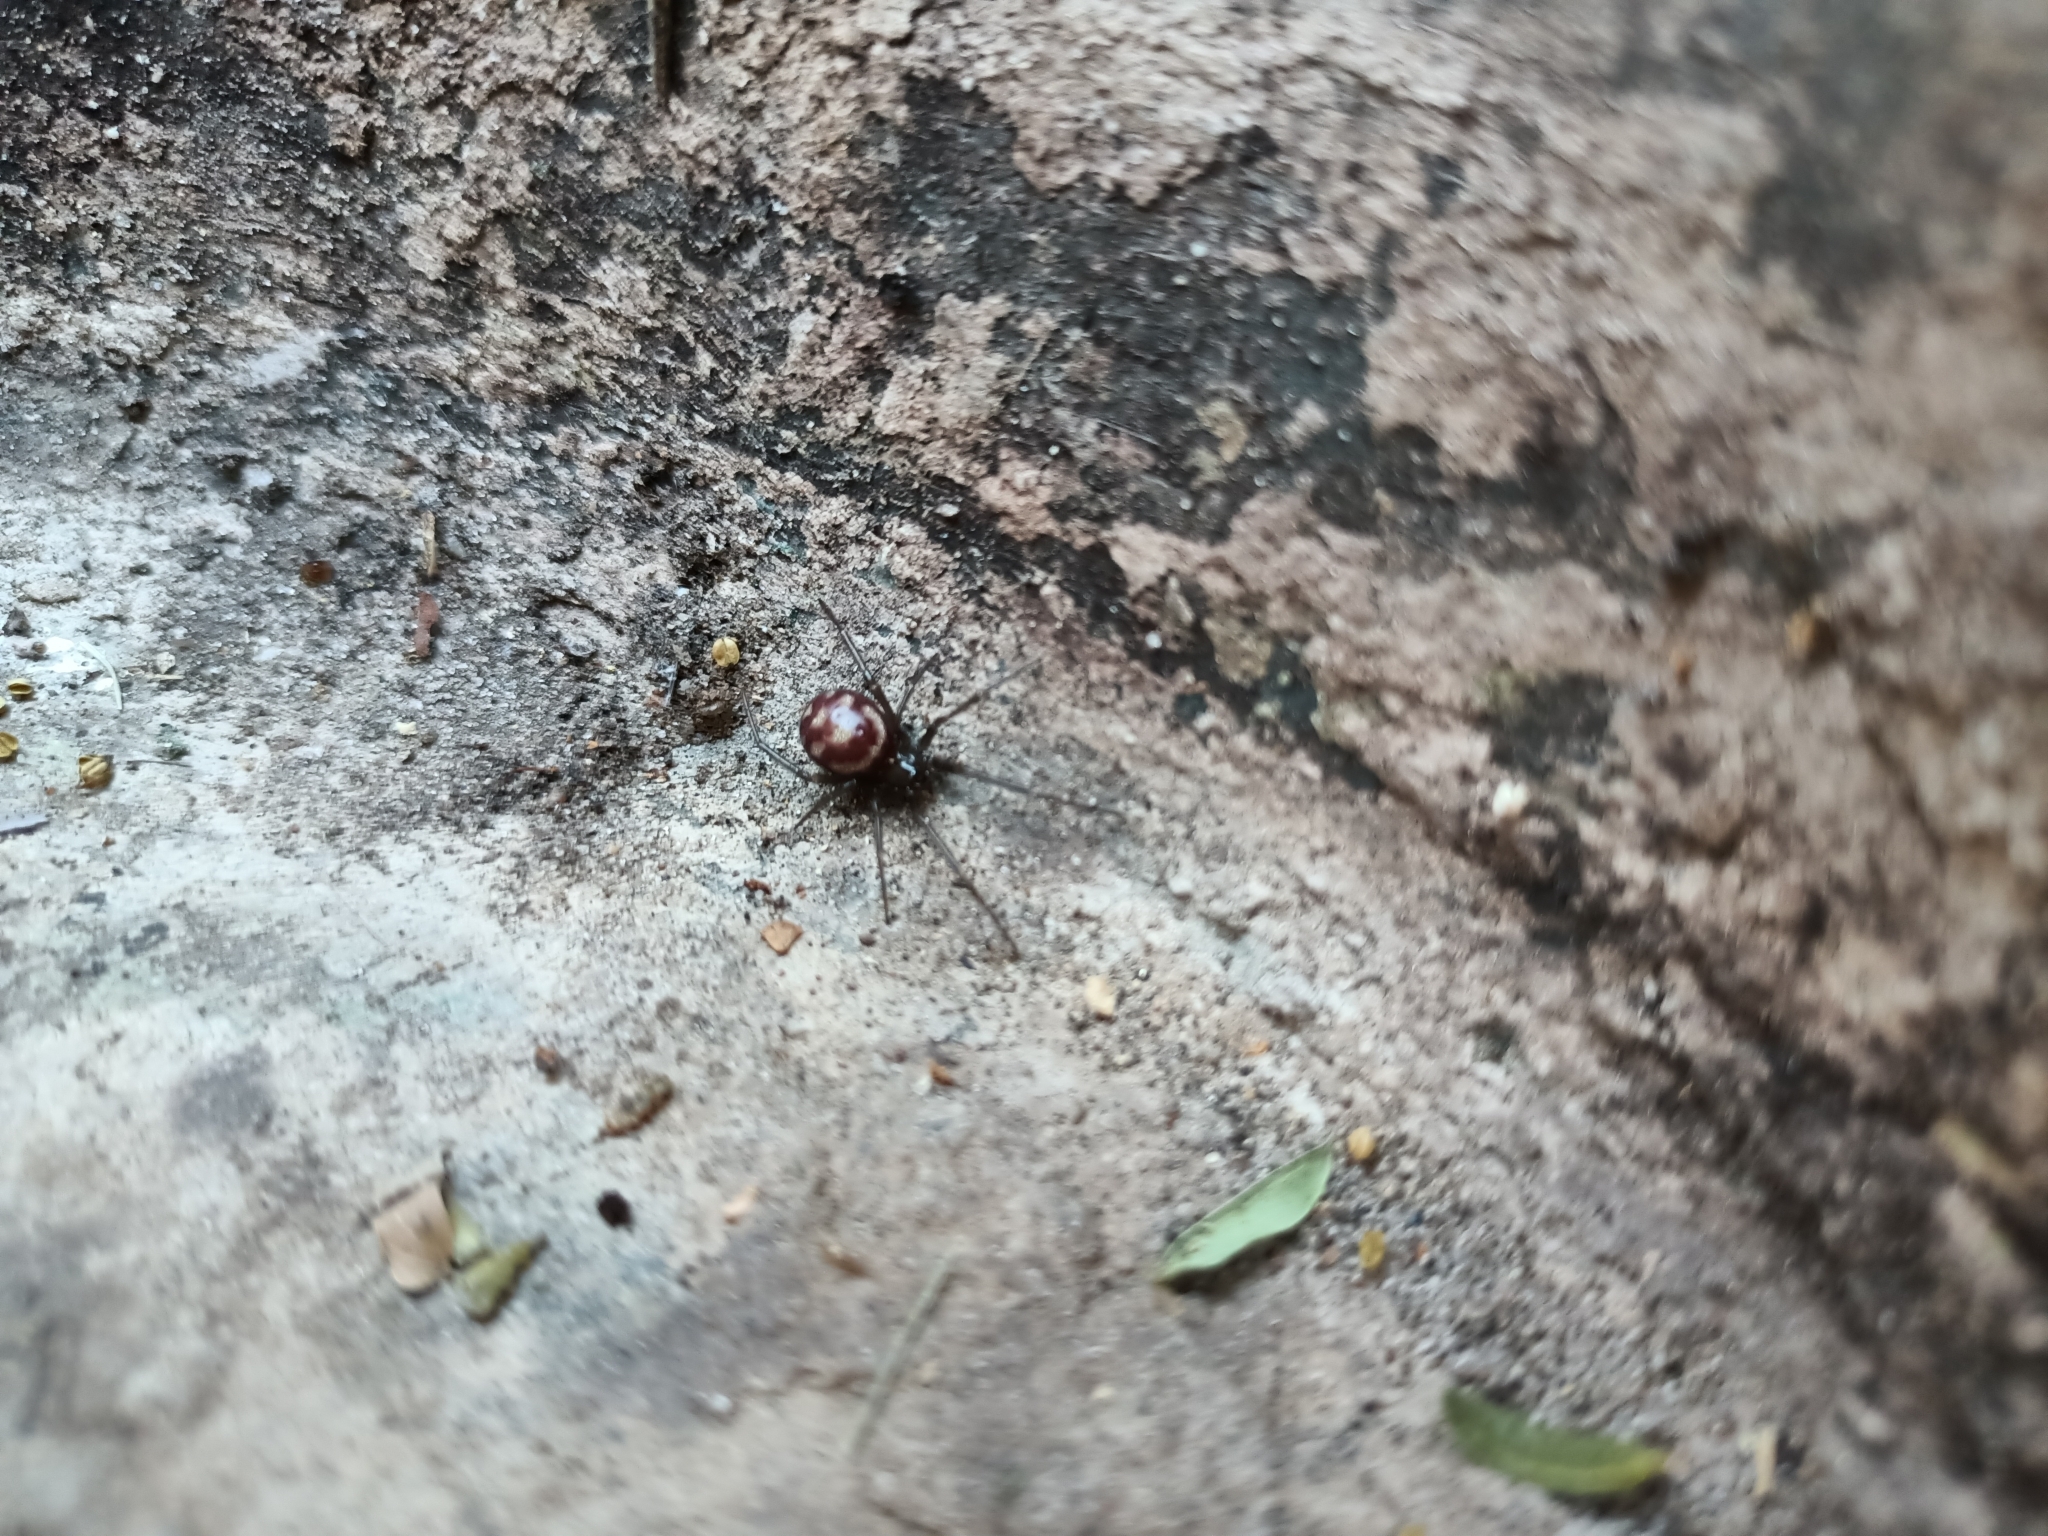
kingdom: Animalia
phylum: Arthropoda
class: Arachnida
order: Araneae
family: Theridiidae
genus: Steatoda
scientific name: Steatoda grossa
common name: False black widow
